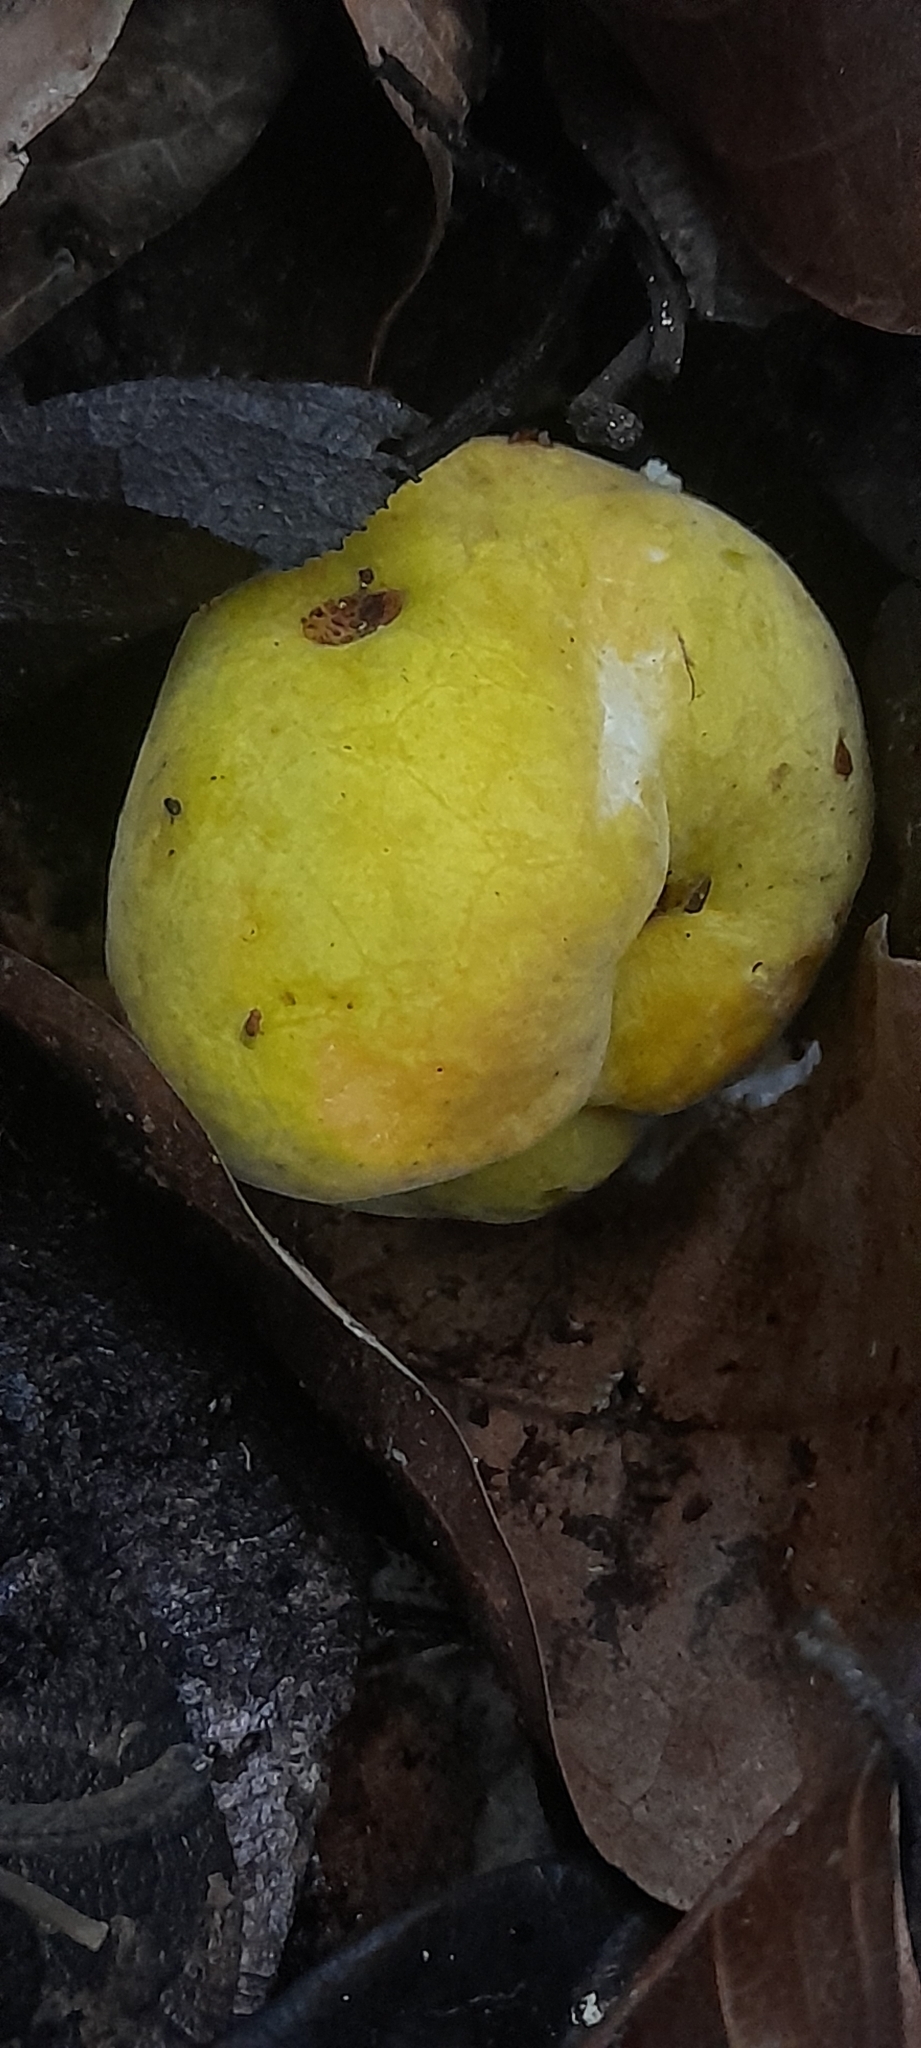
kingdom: Plantae
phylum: Tracheophyta
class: Magnoliopsida
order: Rosales
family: Moraceae
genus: Artocarpus
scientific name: Artocarpus gomezianus
